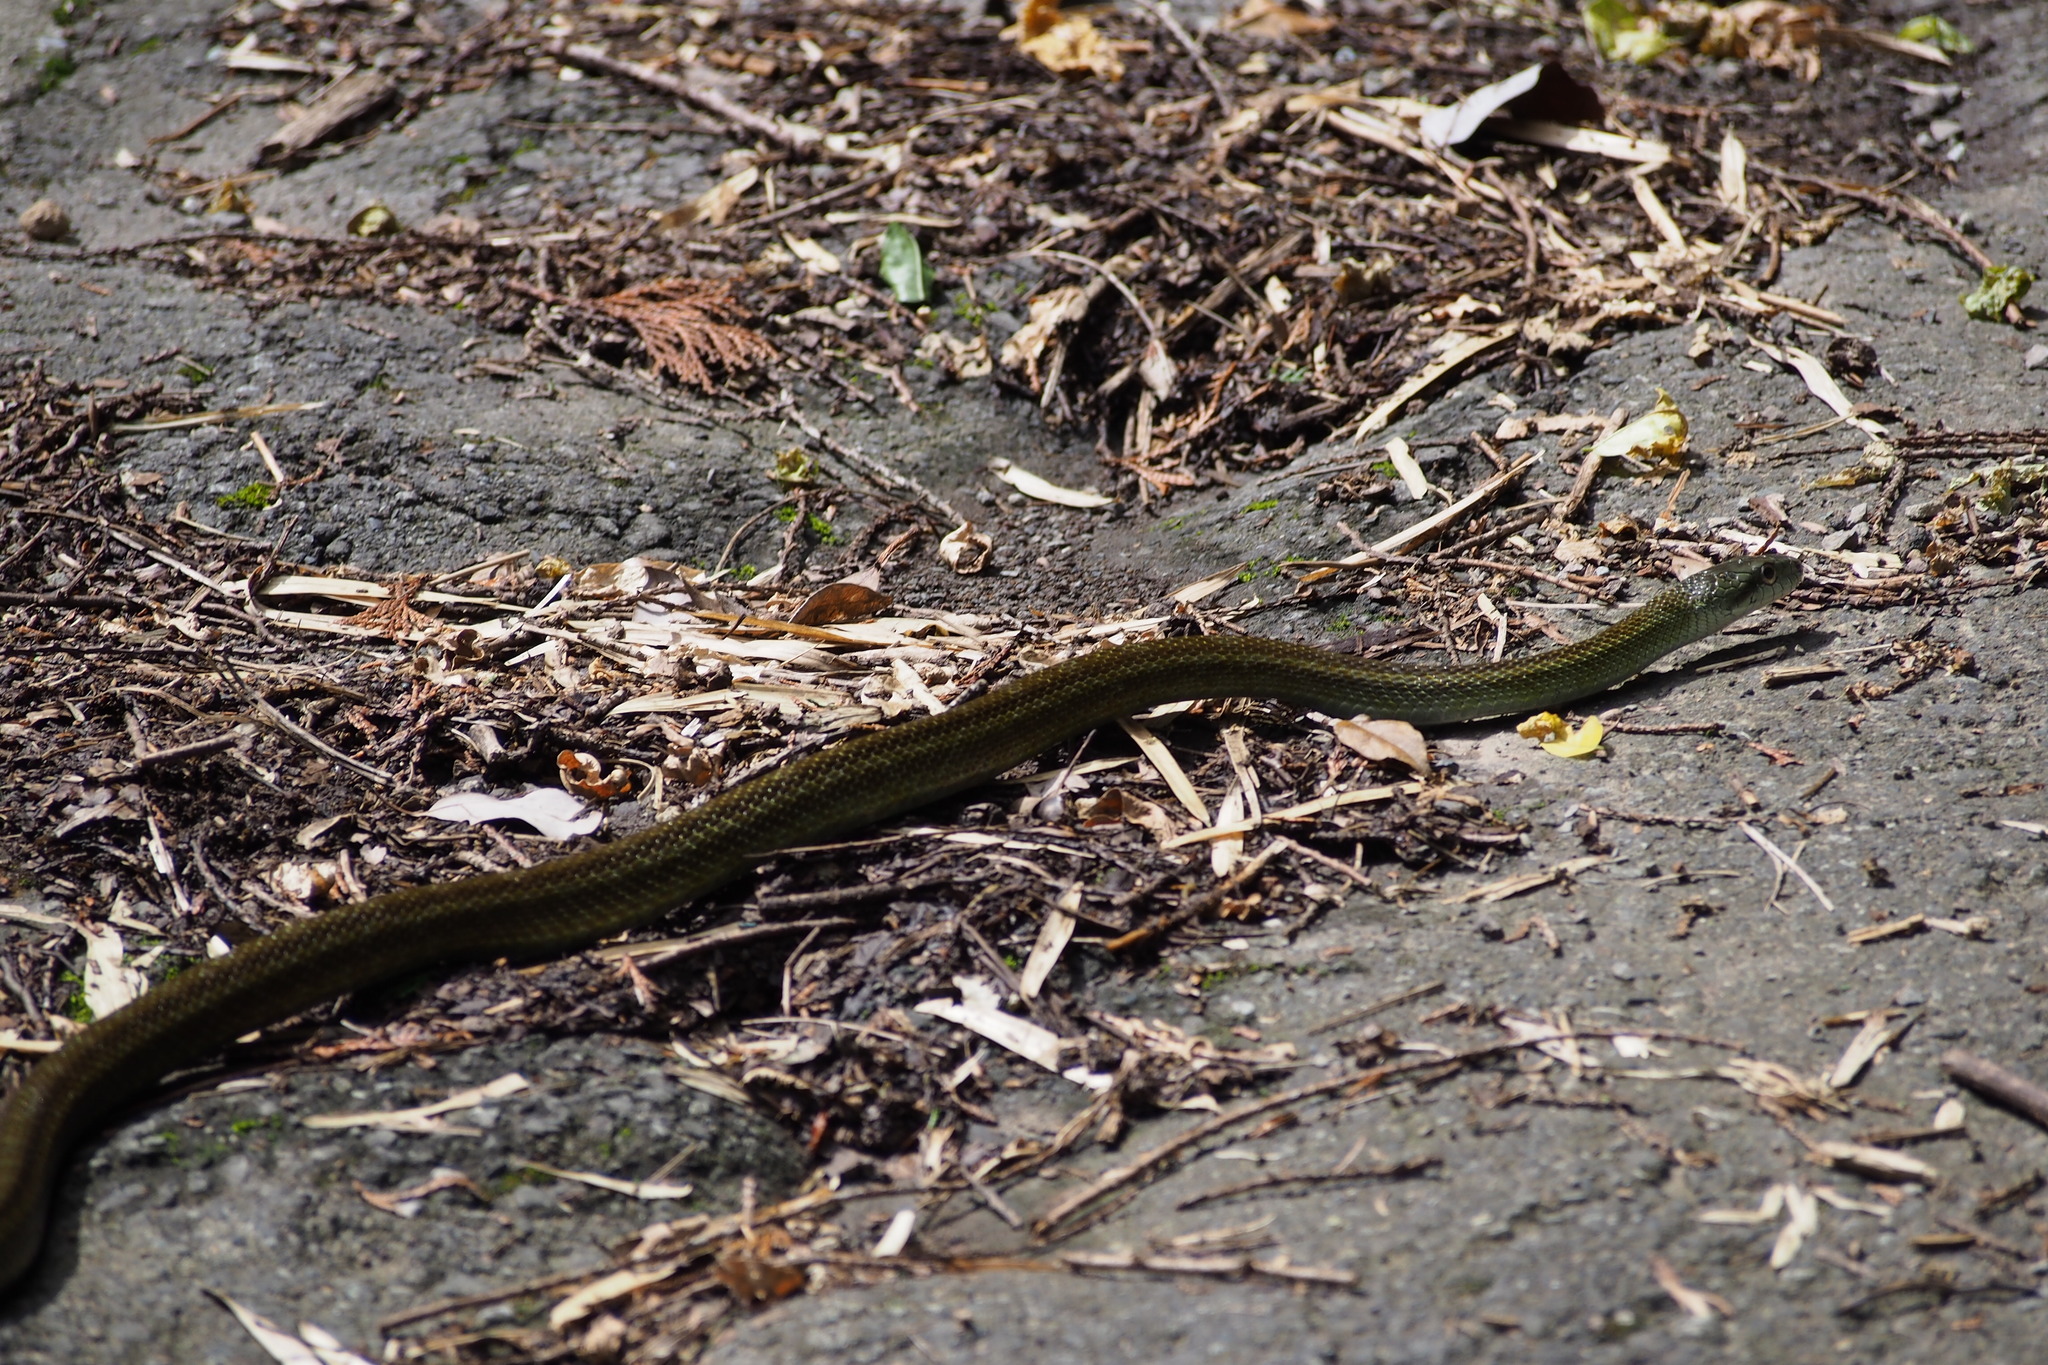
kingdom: Animalia
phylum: Chordata
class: Squamata
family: Colubridae
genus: Elaphe
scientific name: Elaphe climacophora
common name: Japanese ratsnake
